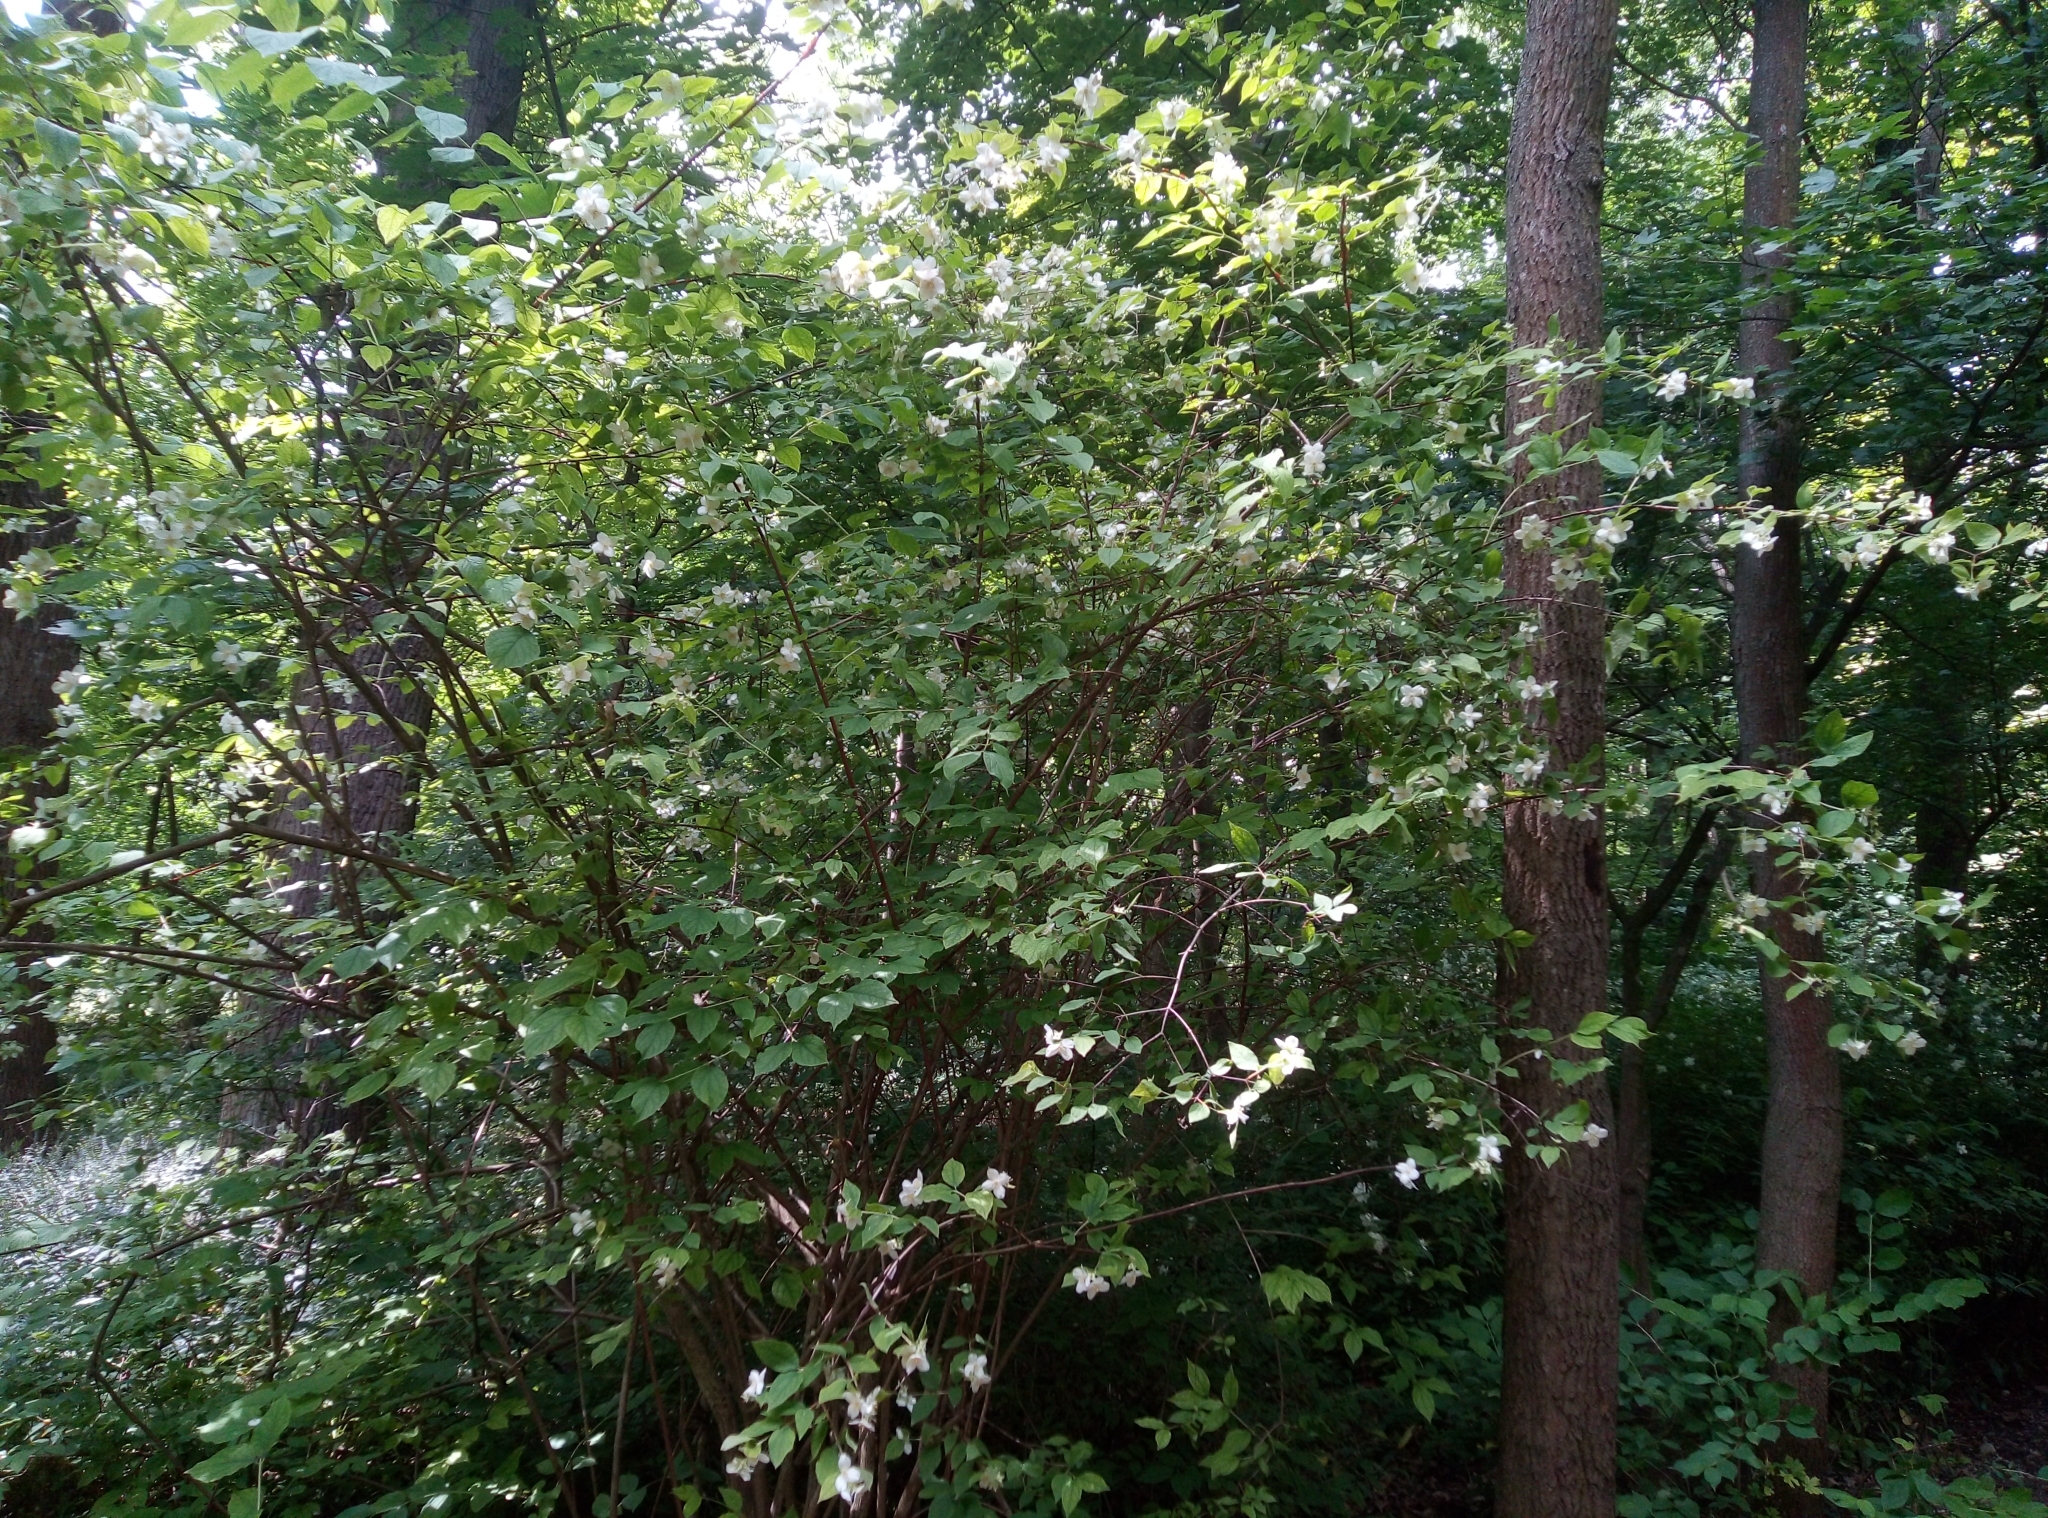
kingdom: Plantae
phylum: Tracheophyta
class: Magnoliopsida
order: Cornales
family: Hydrangeaceae
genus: Philadelphus
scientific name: Philadelphus coronarius
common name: Mock orange
